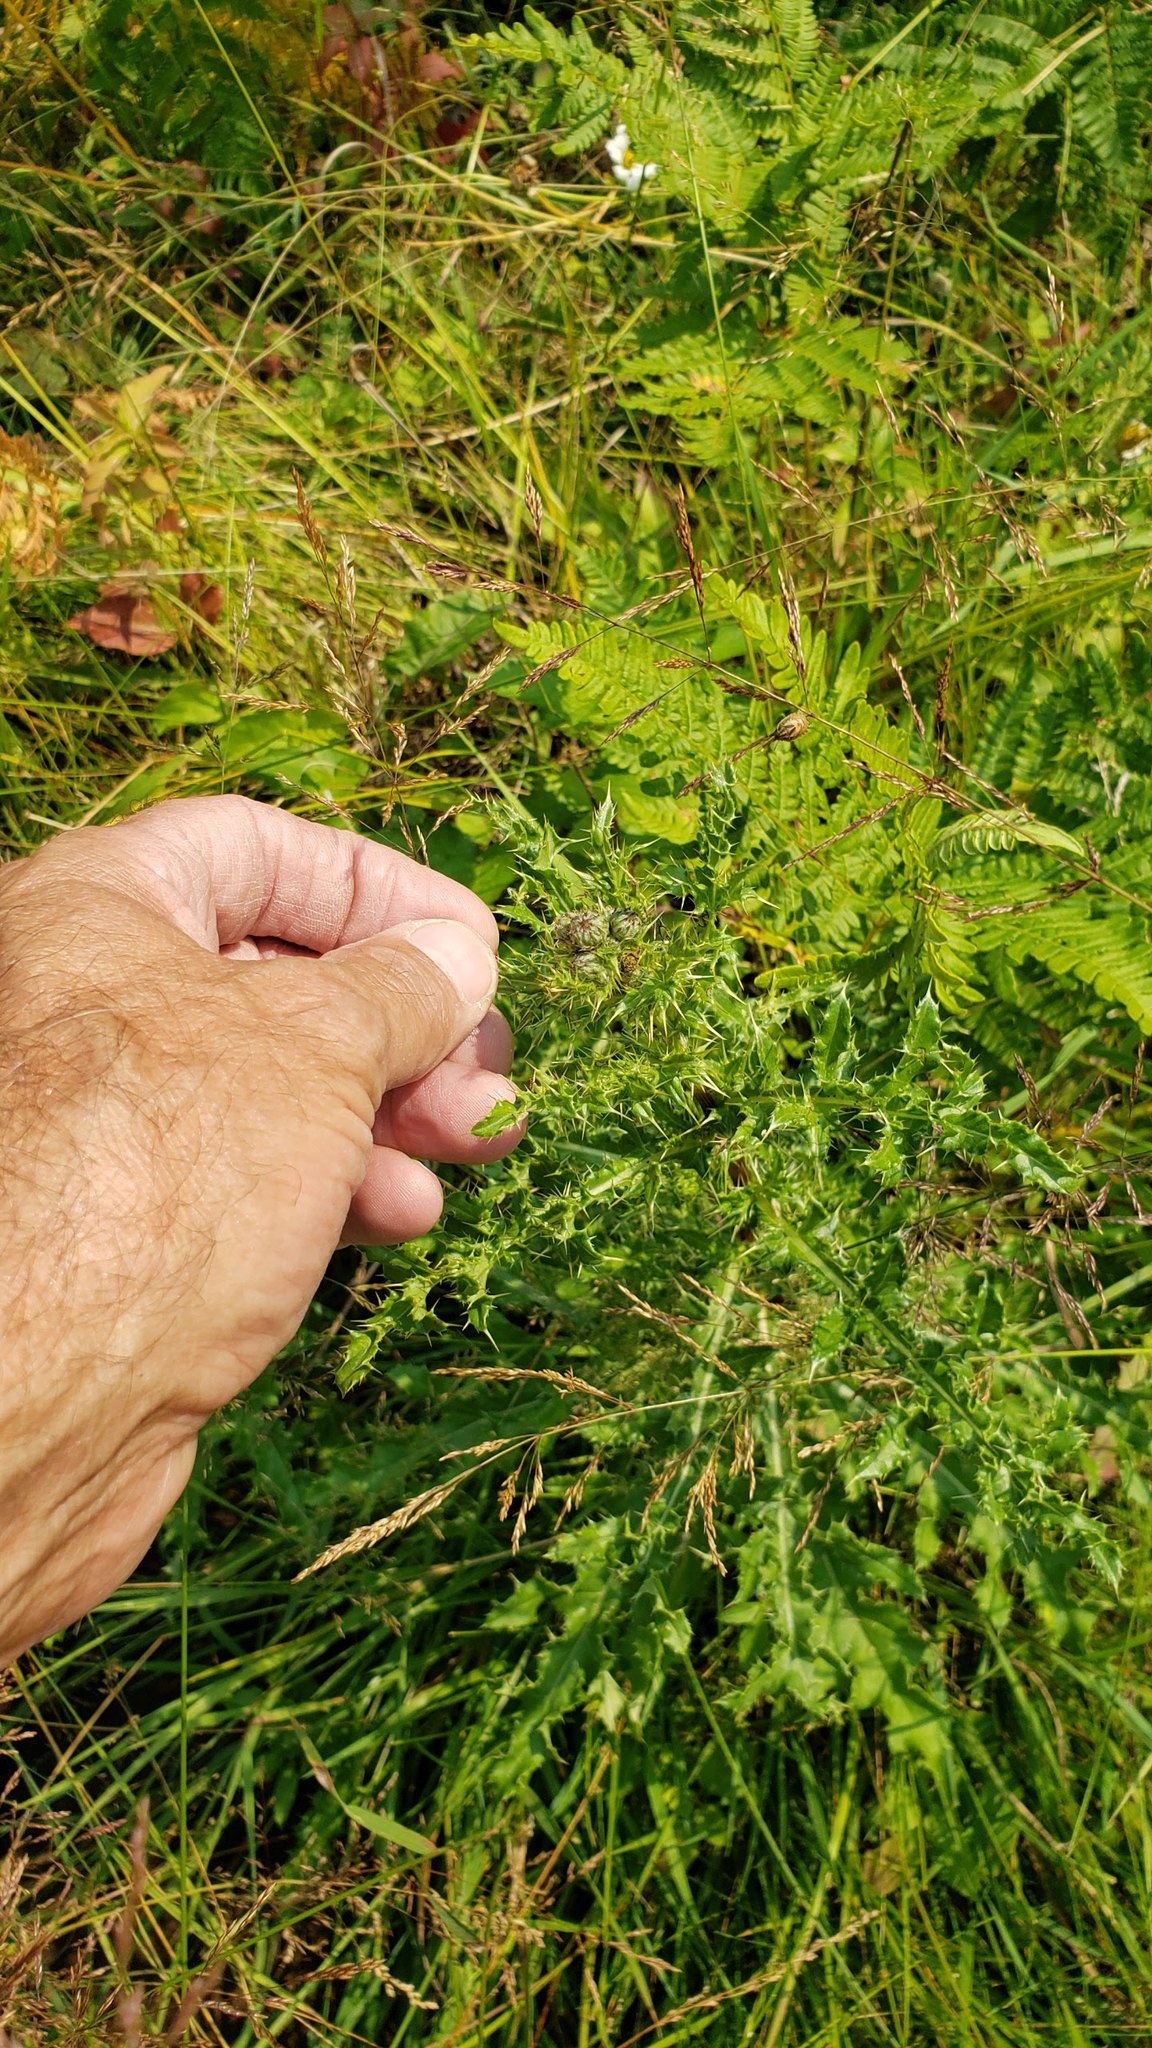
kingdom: Plantae
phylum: Tracheophyta
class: Magnoliopsida
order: Asterales
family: Asteraceae
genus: Cirsium
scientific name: Cirsium arvense
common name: Creeping thistle
